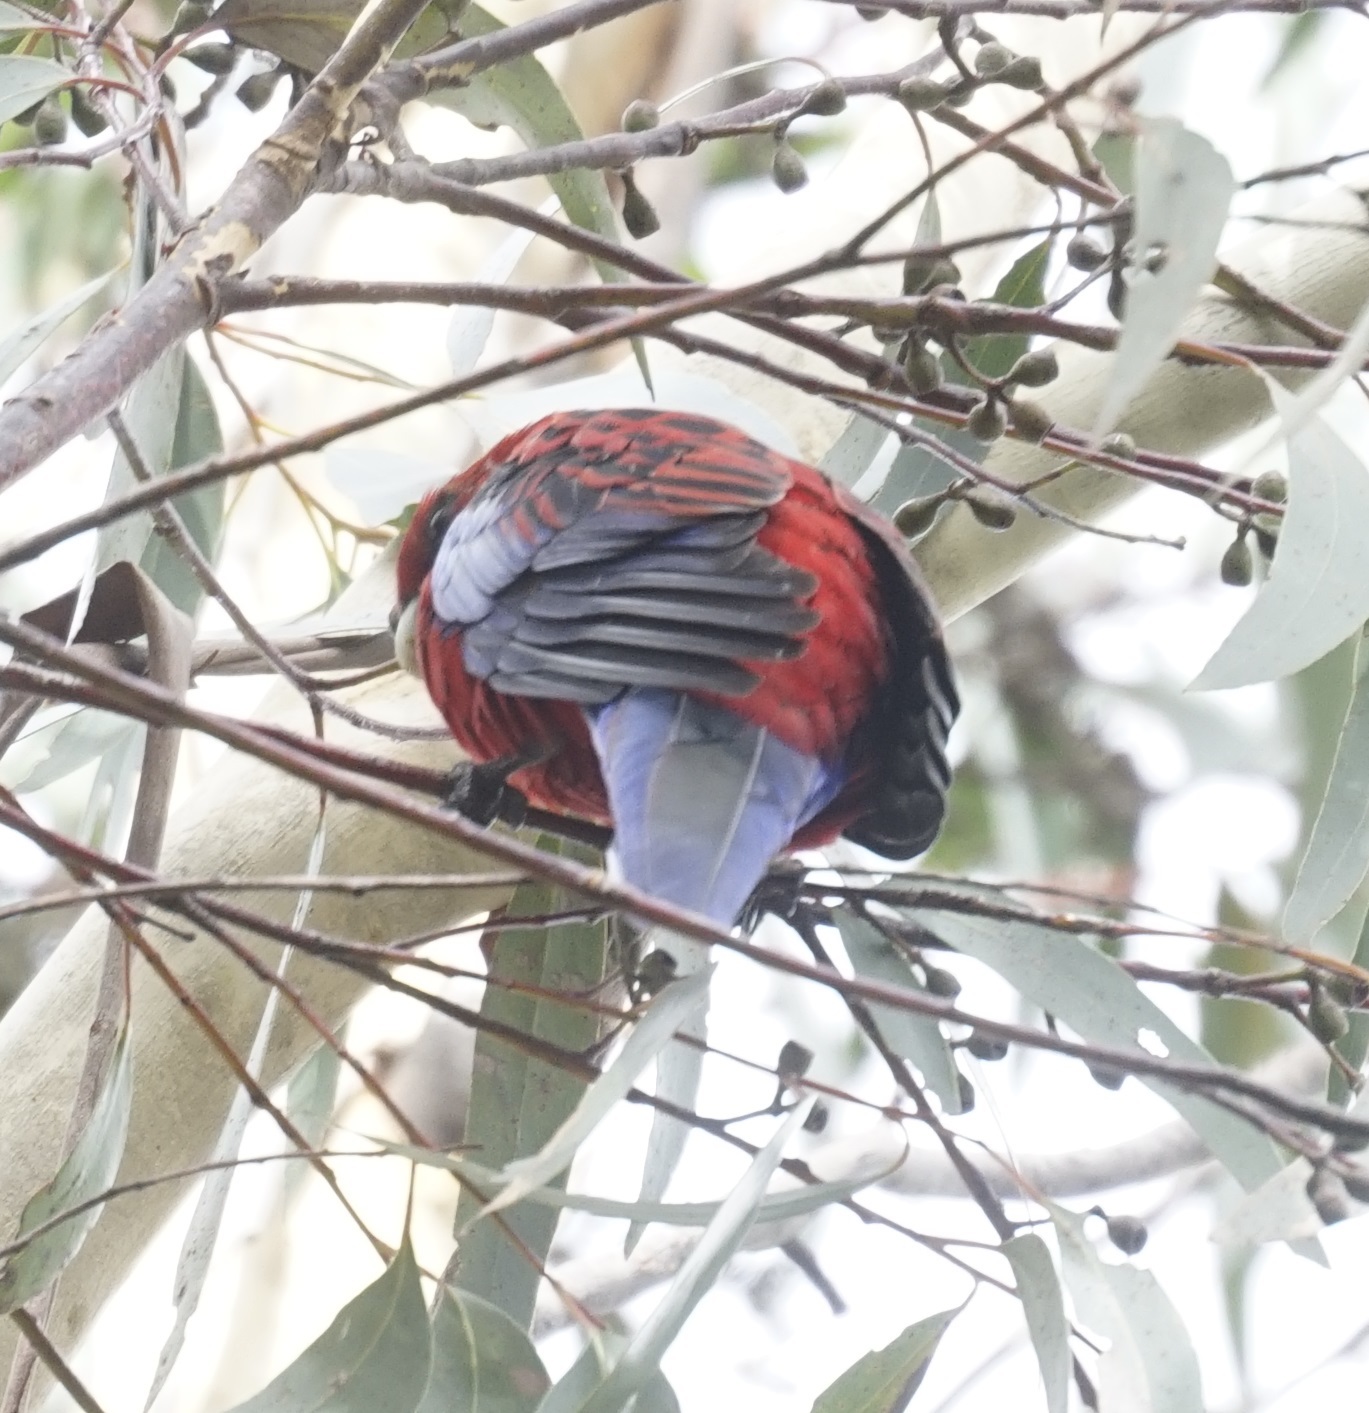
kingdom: Animalia
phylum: Chordata
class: Aves
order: Psittaciformes
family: Psittacidae
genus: Platycercus
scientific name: Platycercus elegans
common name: Crimson rosella
